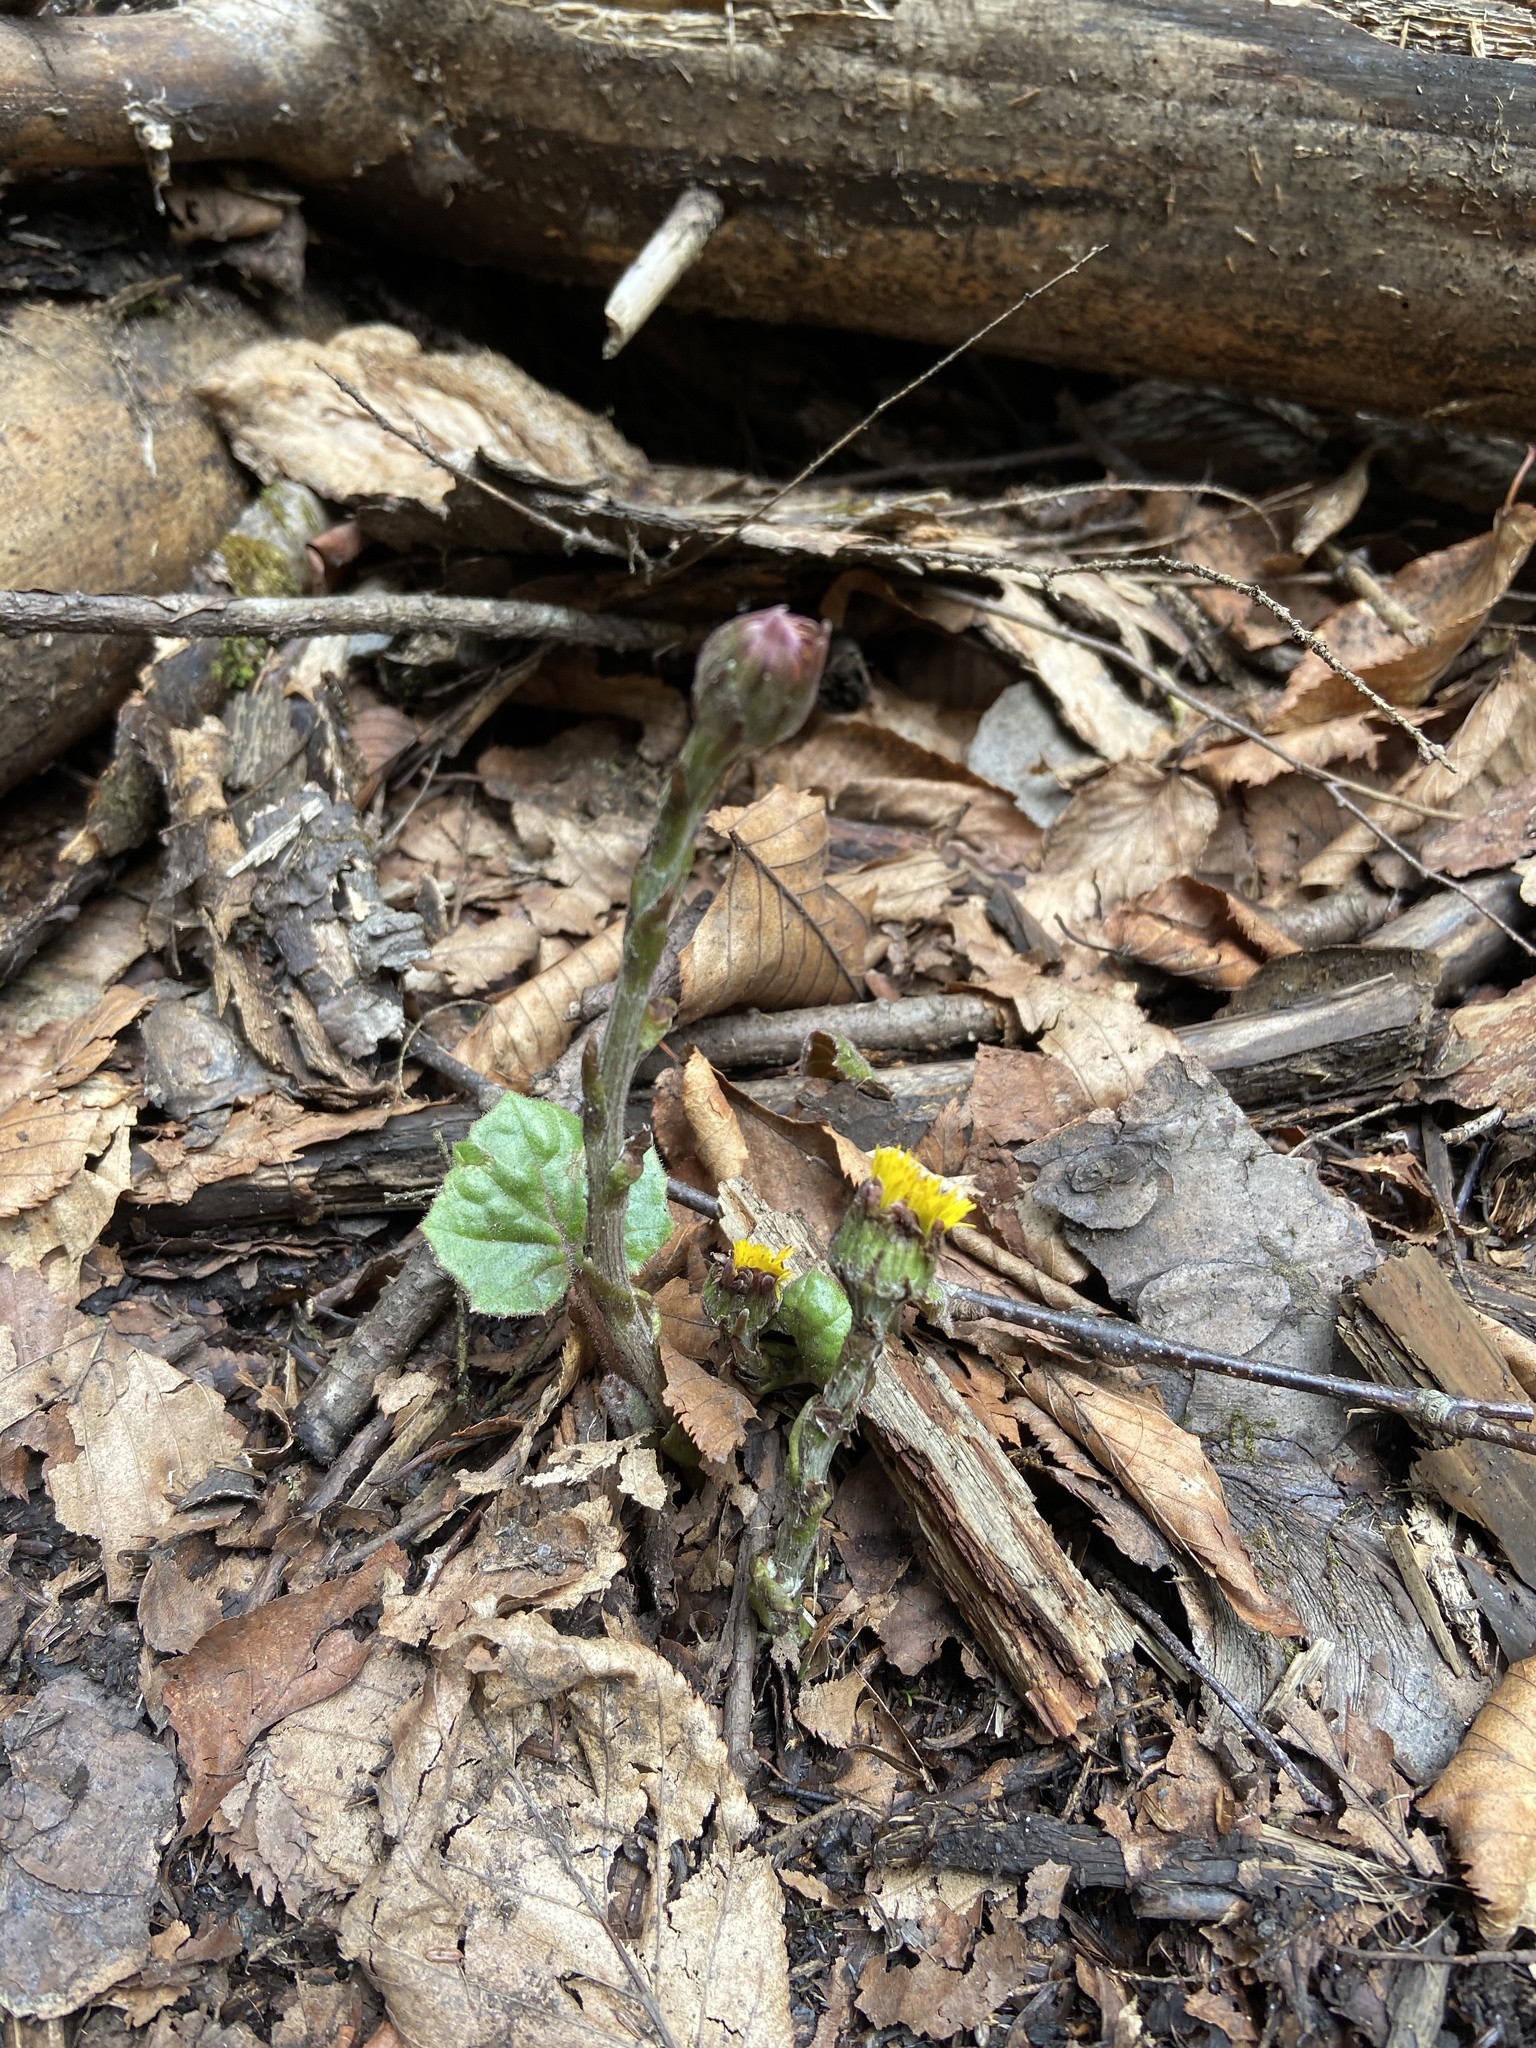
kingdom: Plantae
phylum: Tracheophyta
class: Magnoliopsida
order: Asterales
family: Asteraceae
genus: Tussilago
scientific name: Tussilago farfara
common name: Coltsfoot
